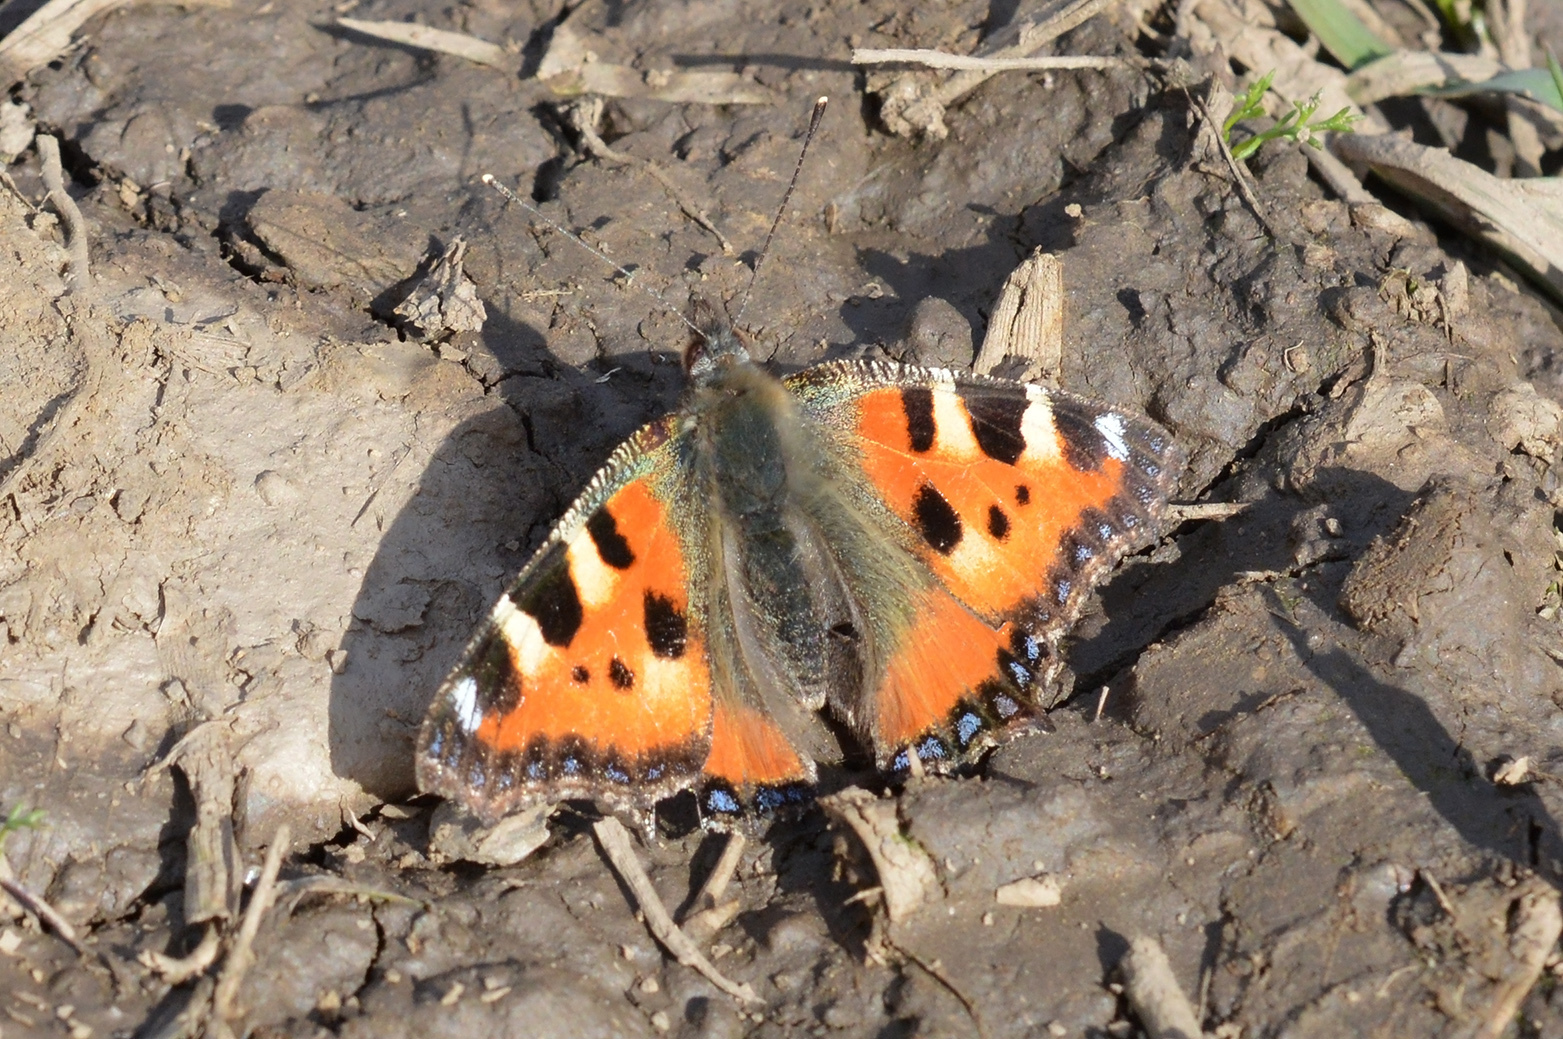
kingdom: Animalia
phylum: Arthropoda
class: Insecta
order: Lepidoptera
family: Nymphalidae
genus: Aglais
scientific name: Aglais urticae
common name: Small tortoiseshell
